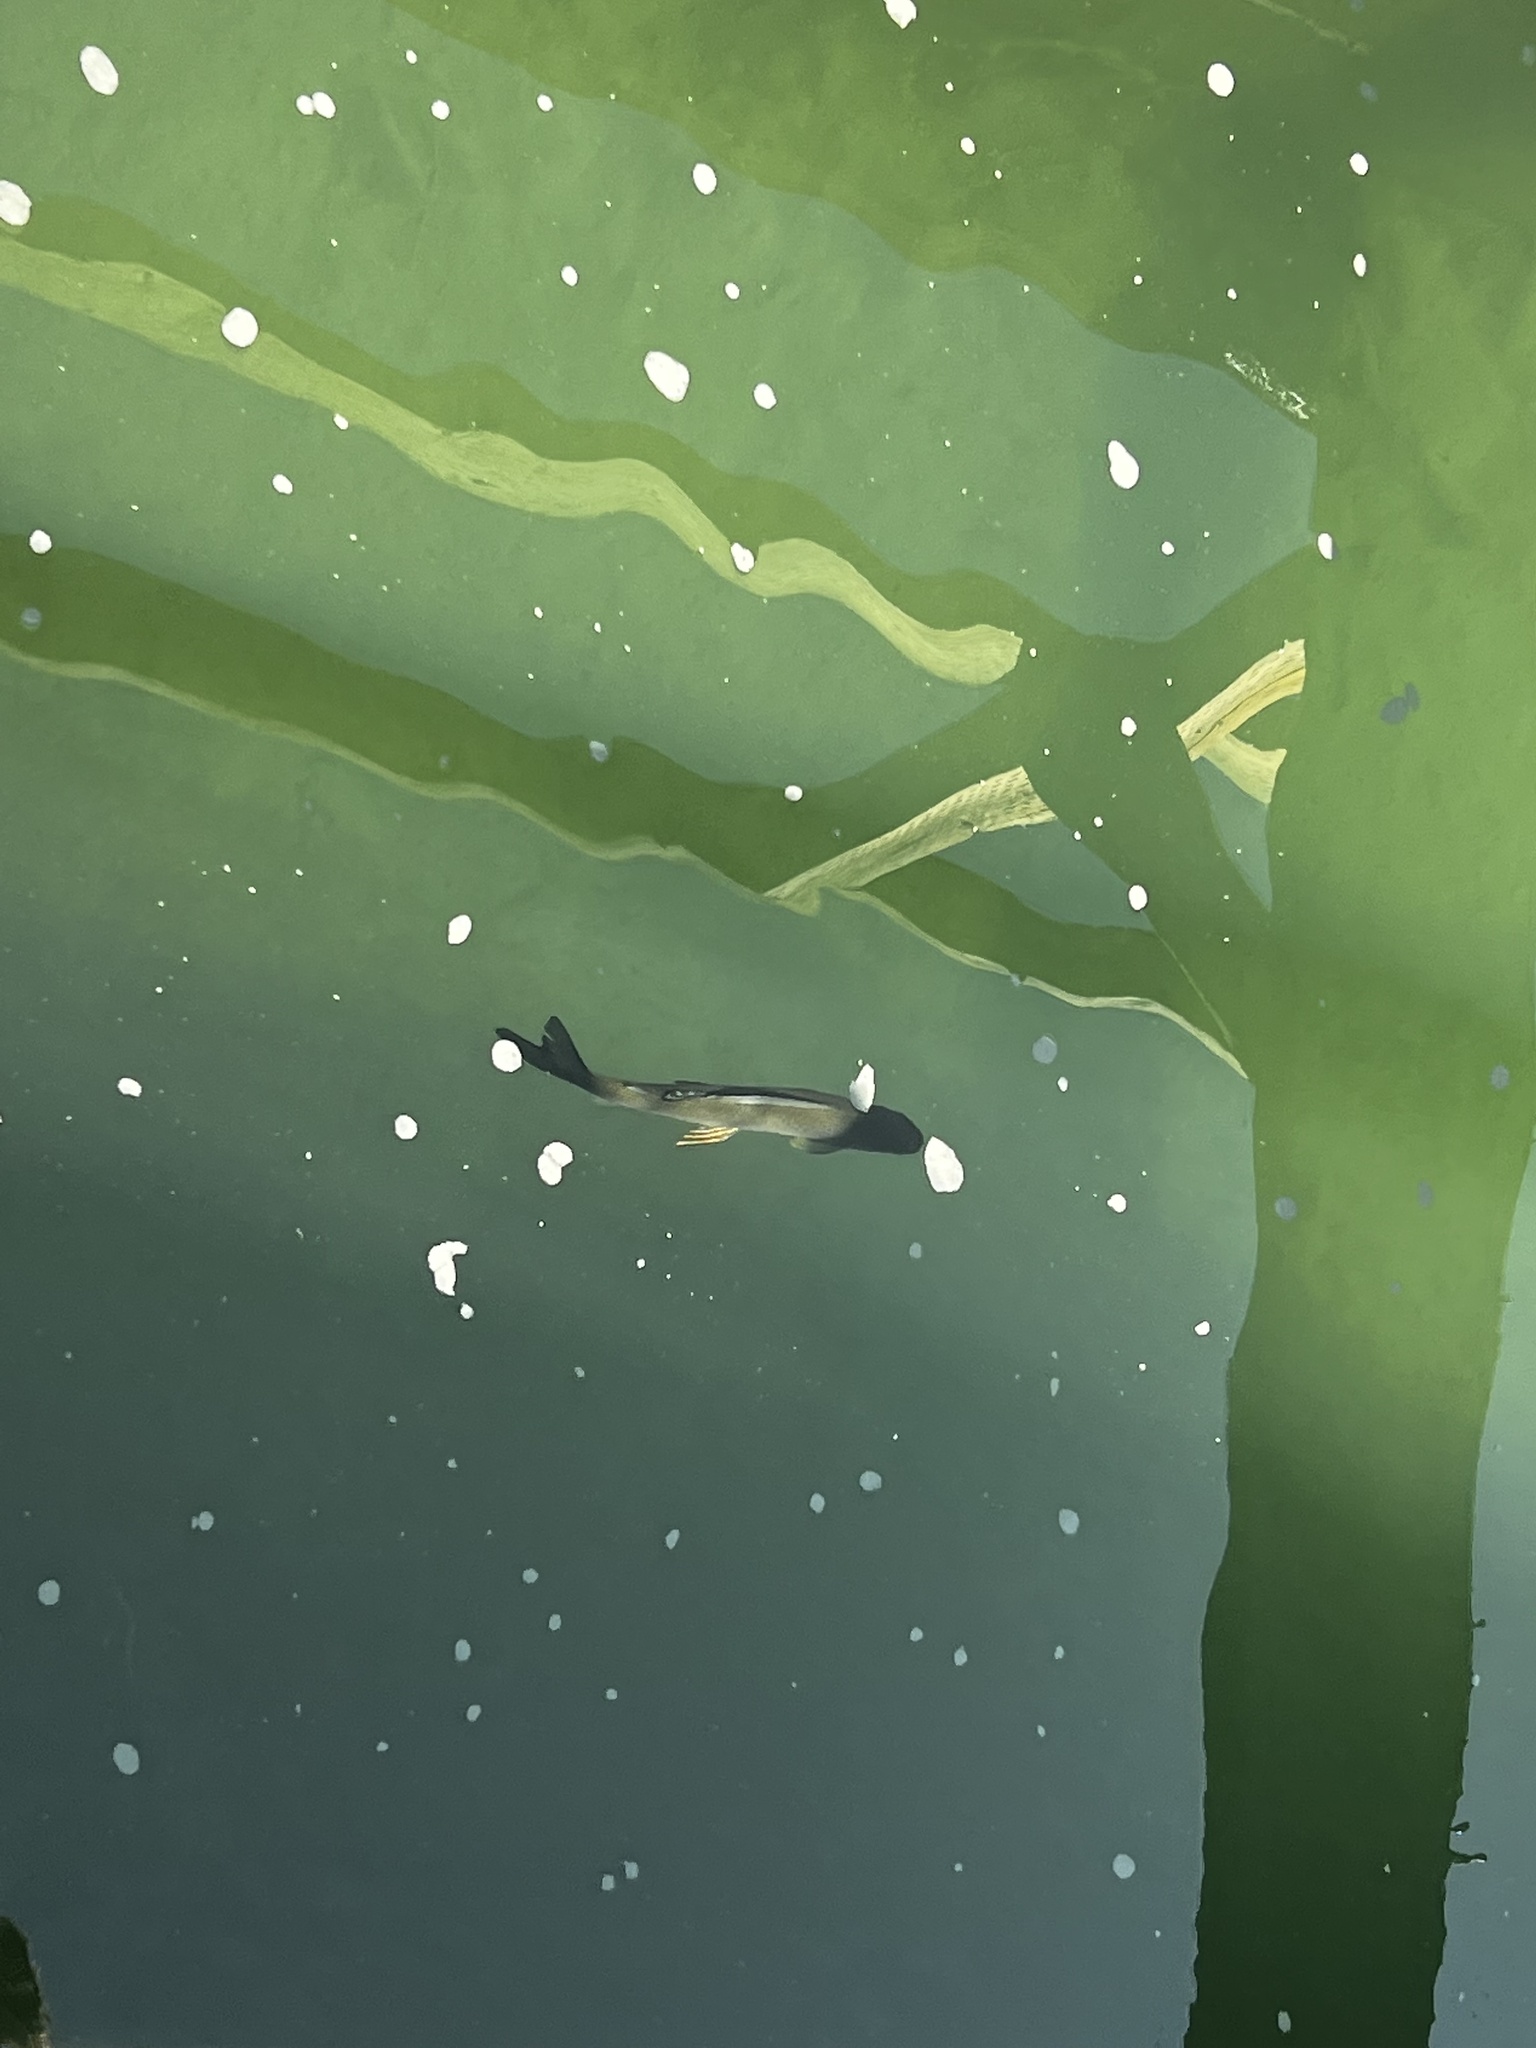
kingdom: Animalia
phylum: Chordata
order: Salmoniformes
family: Salmonidae
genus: Thymallus
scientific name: Thymallus arcticus
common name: Arctic grayling
